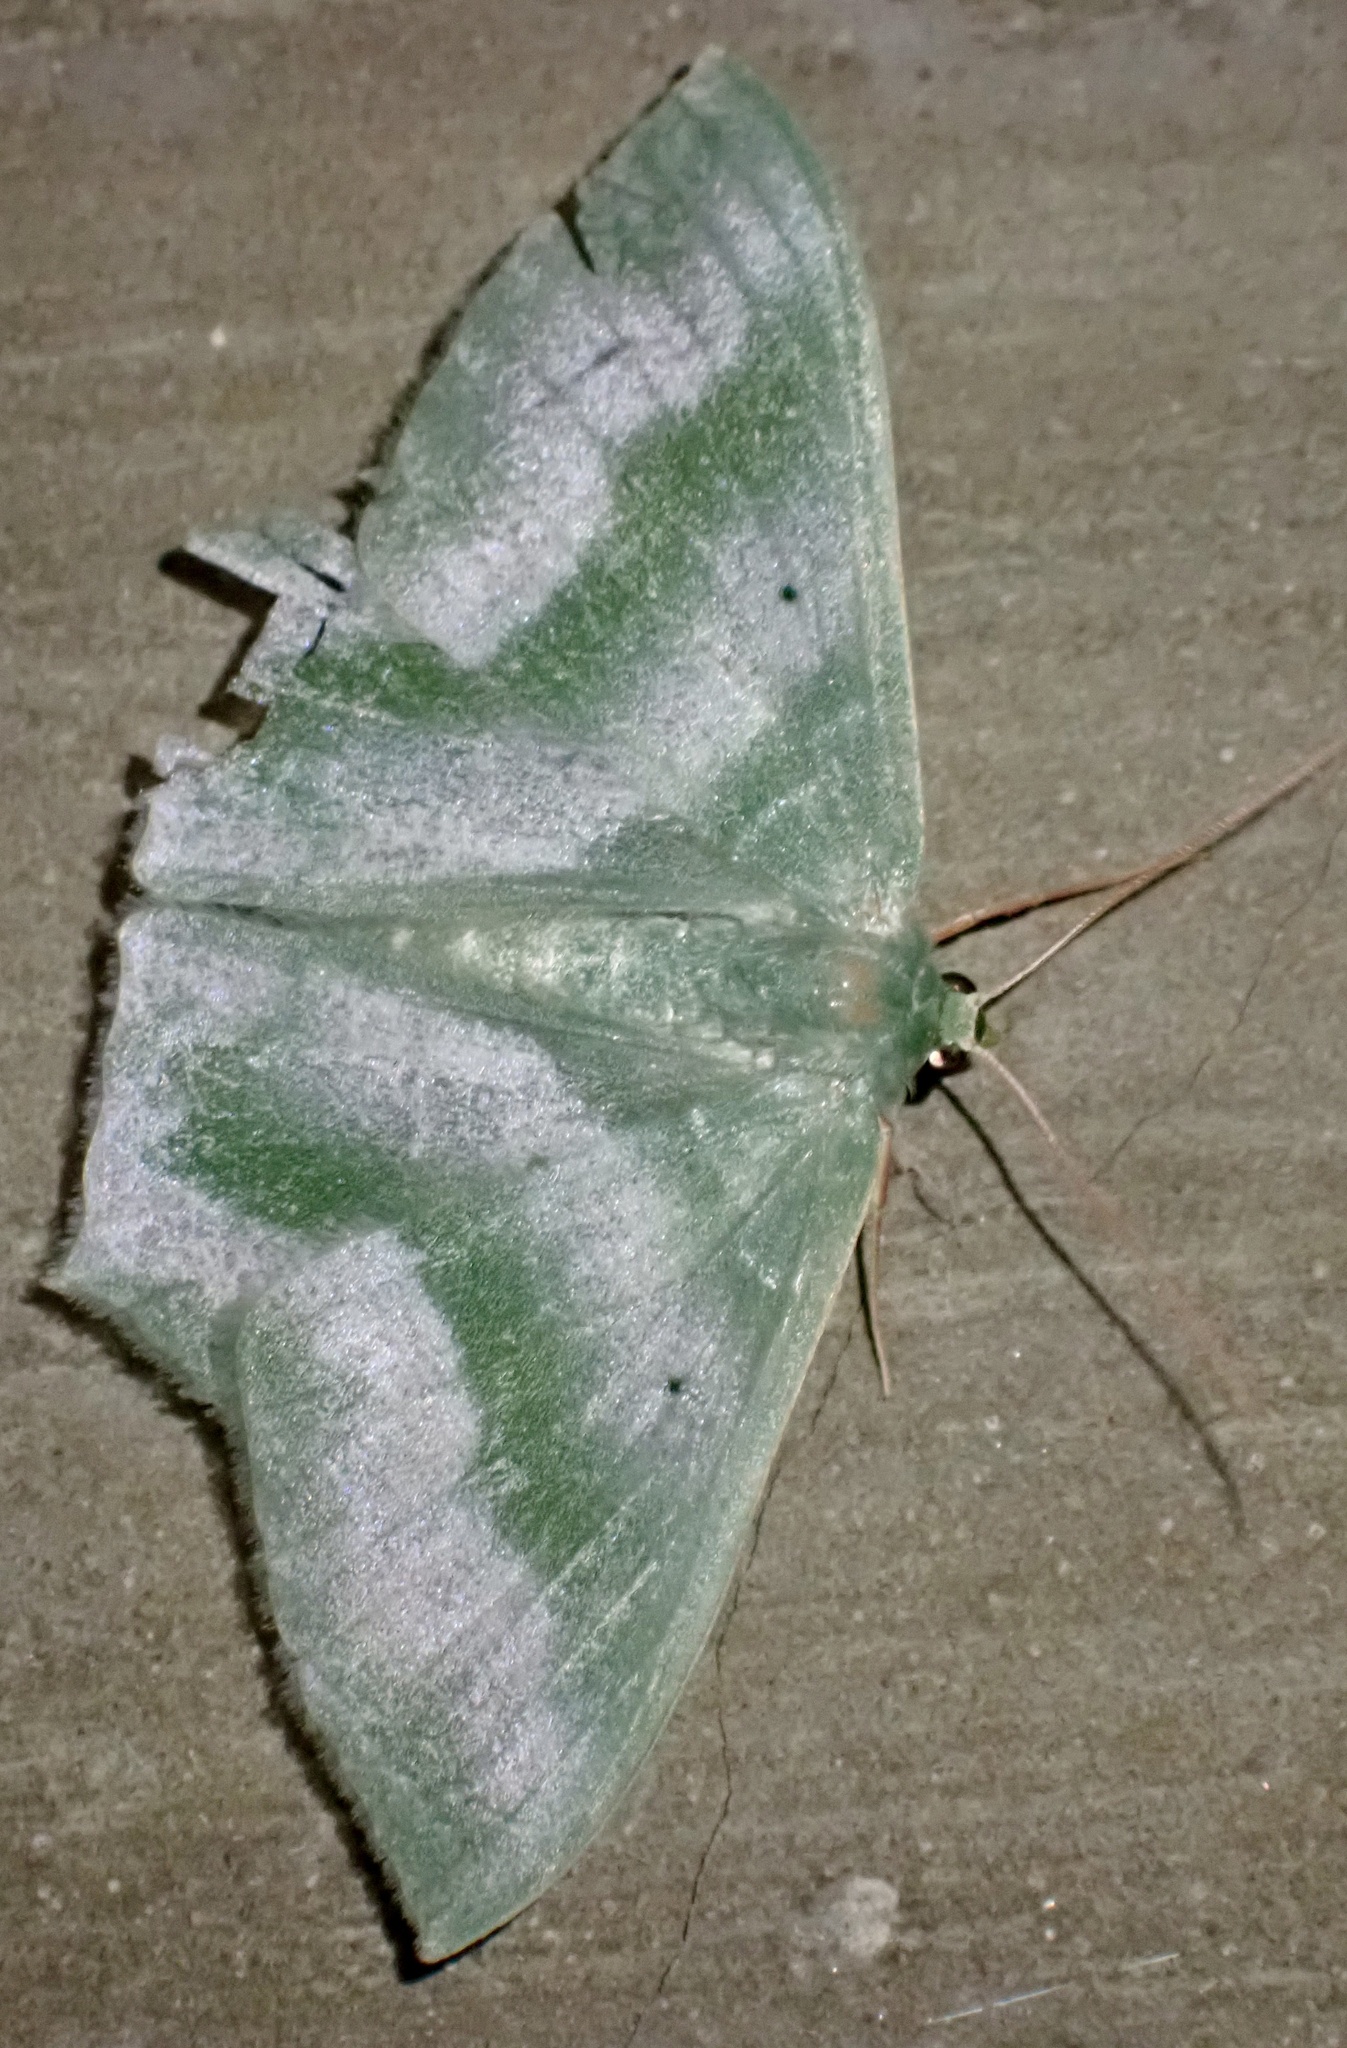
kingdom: Animalia
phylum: Arthropoda
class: Insecta
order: Lepidoptera
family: Geometridae
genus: Maxates
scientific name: Maxates orthodesma
